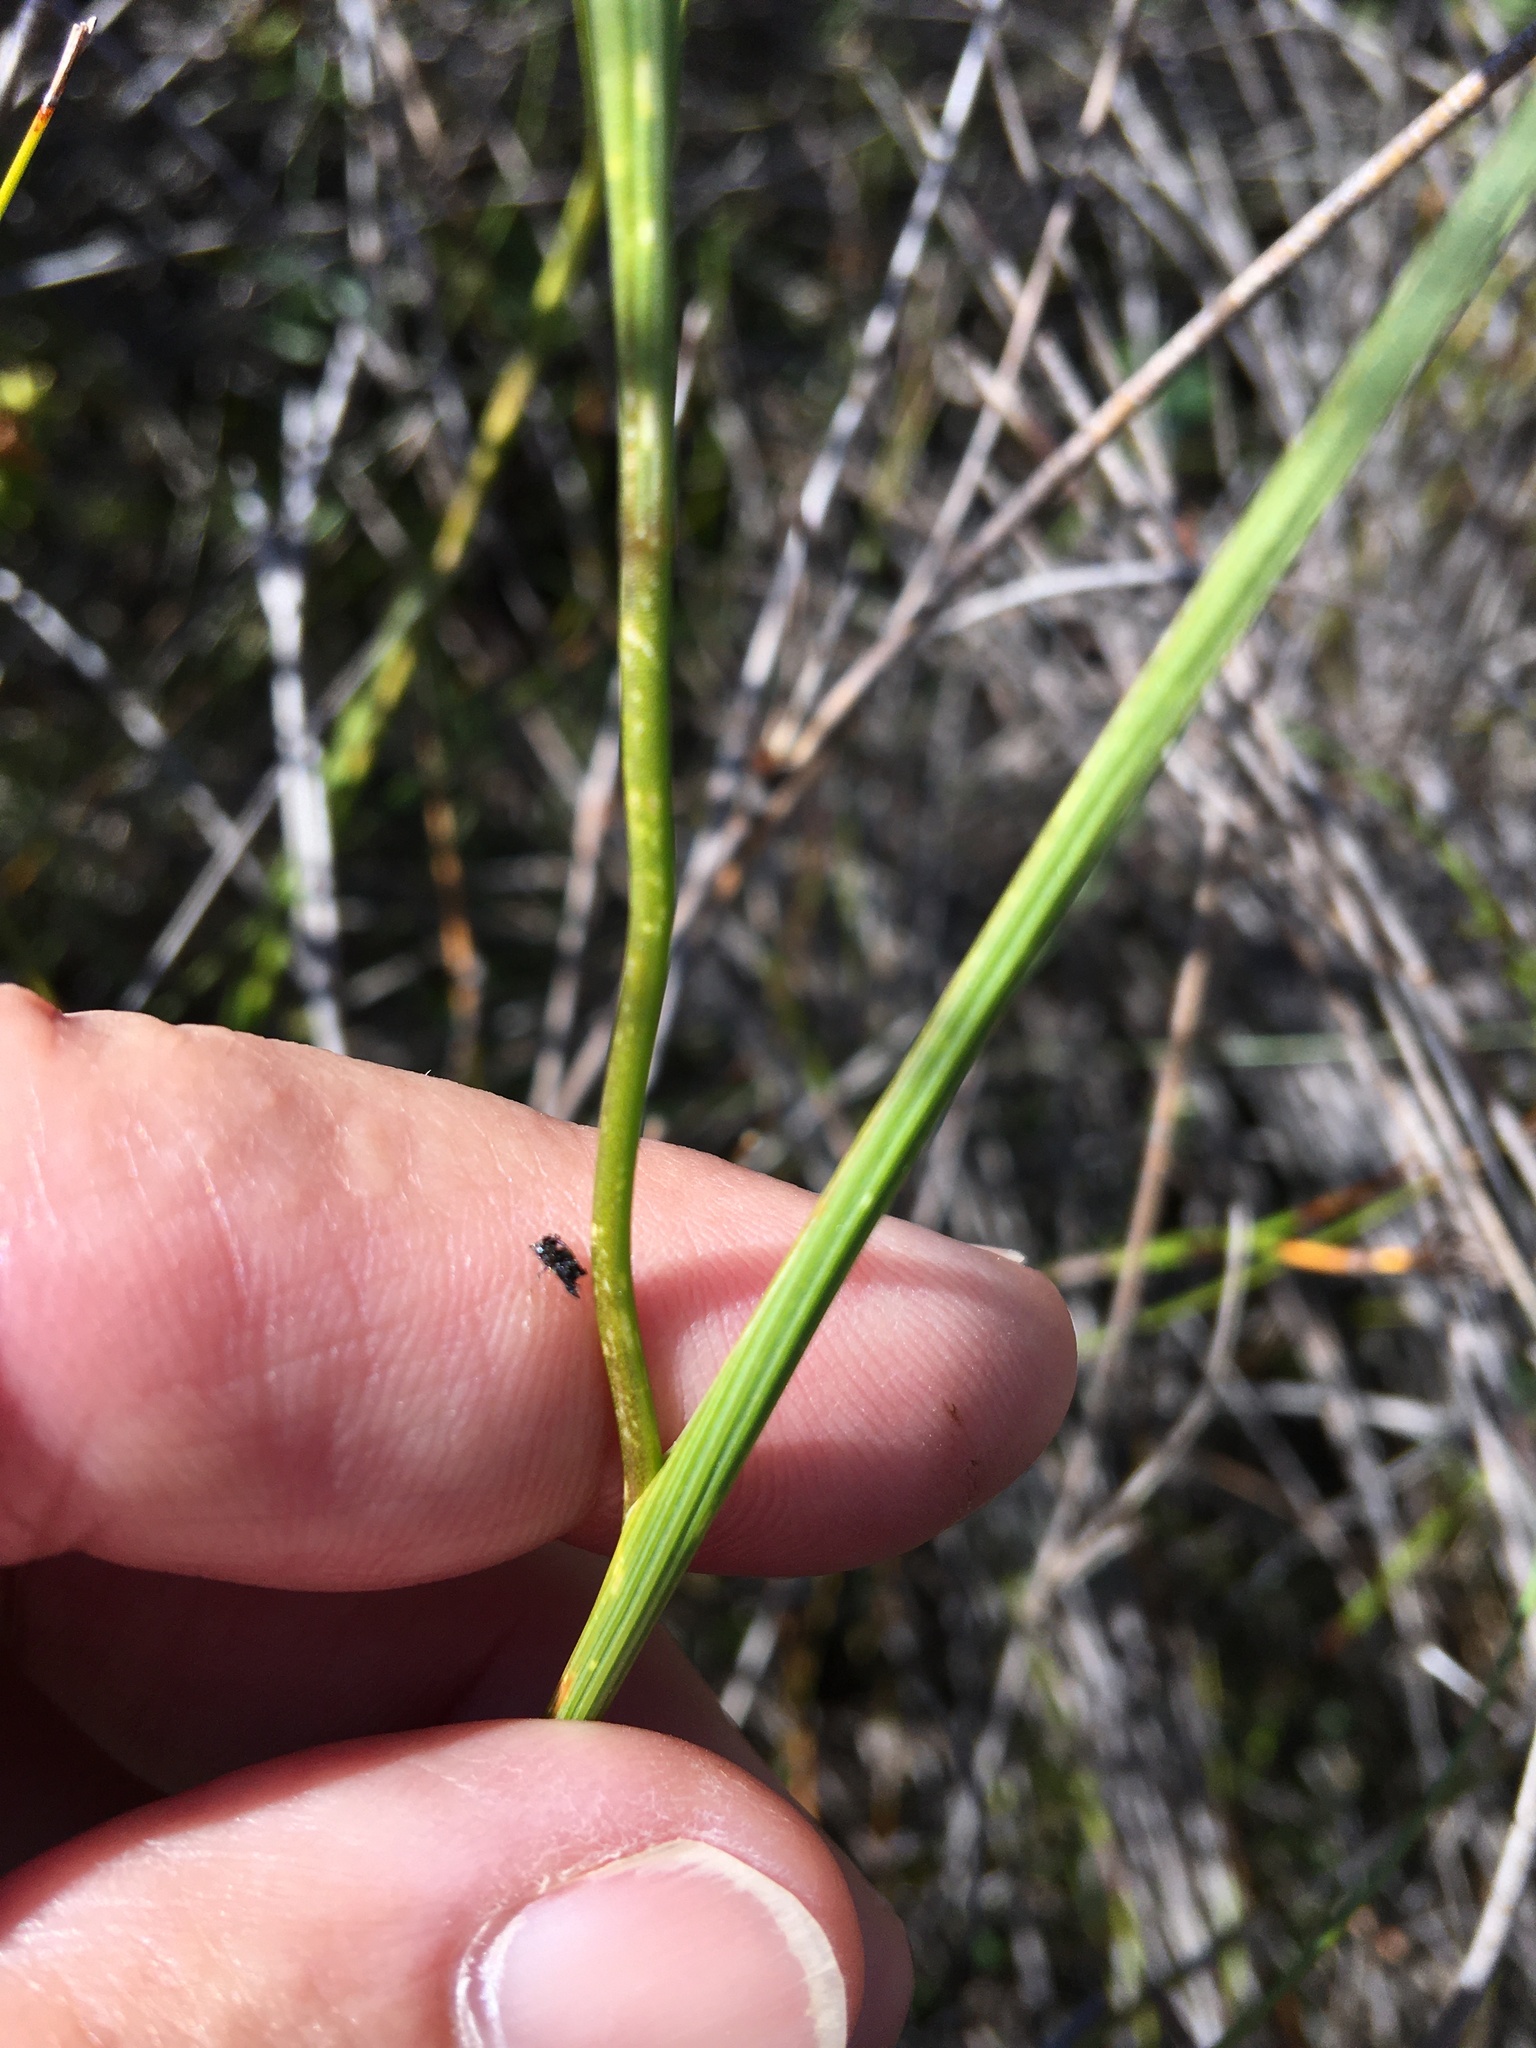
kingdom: Plantae
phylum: Tracheophyta
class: Liliopsida
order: Asparagales
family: Iridaceae
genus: Gladiolus
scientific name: Gladiolus debilis
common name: Painted-lady
